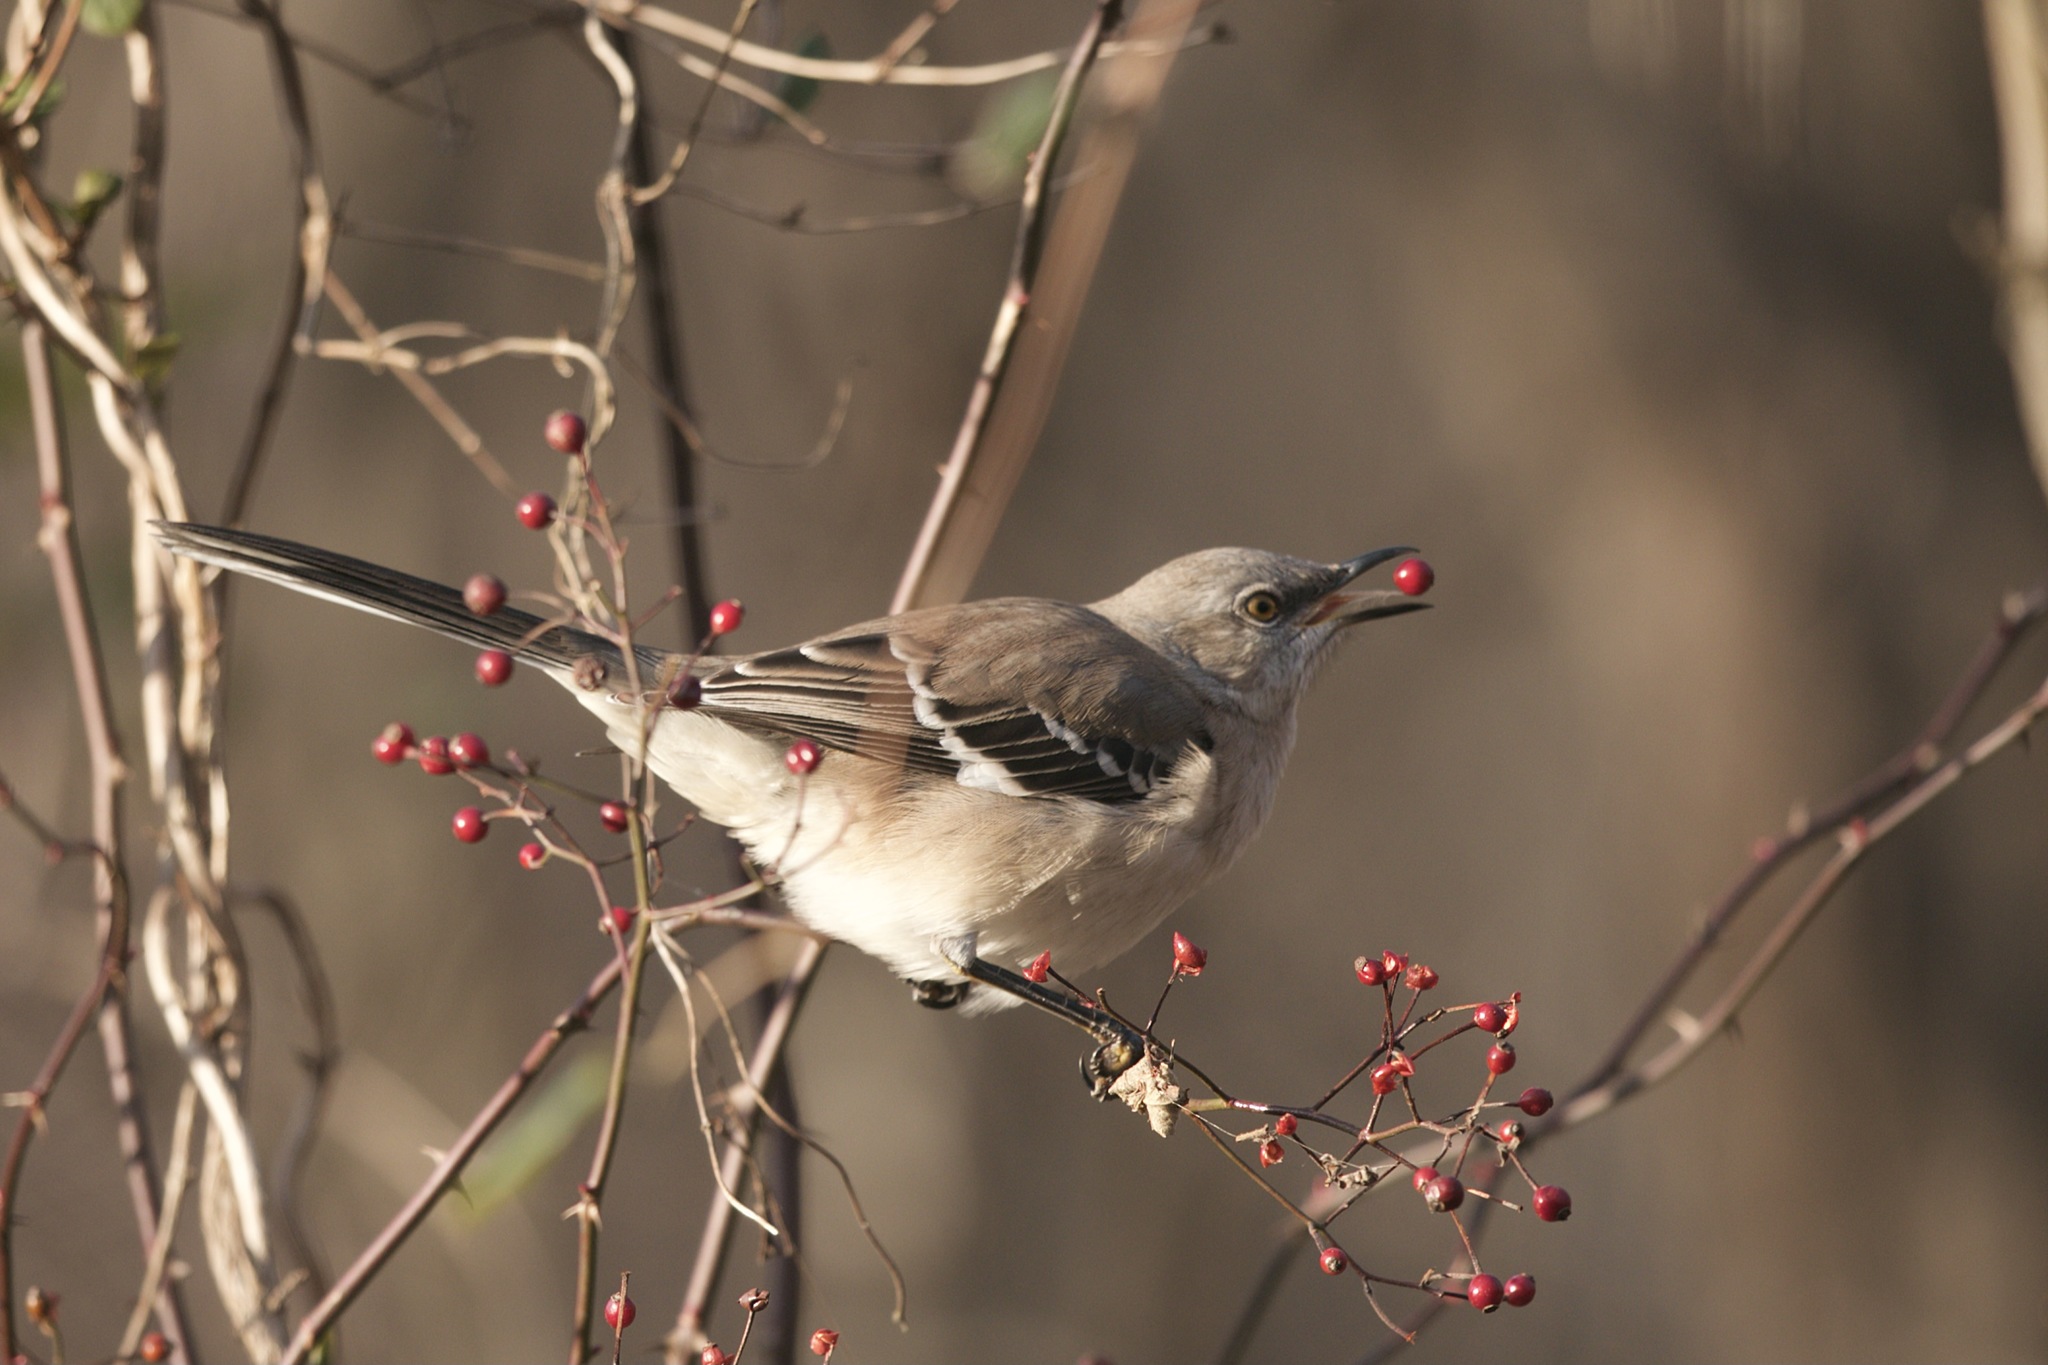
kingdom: Animalia
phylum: Chordata
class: Aves
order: Passeriformes
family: Mimidae
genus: Mimus
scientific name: Mimus polyglottos
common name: Northern mockingbird
